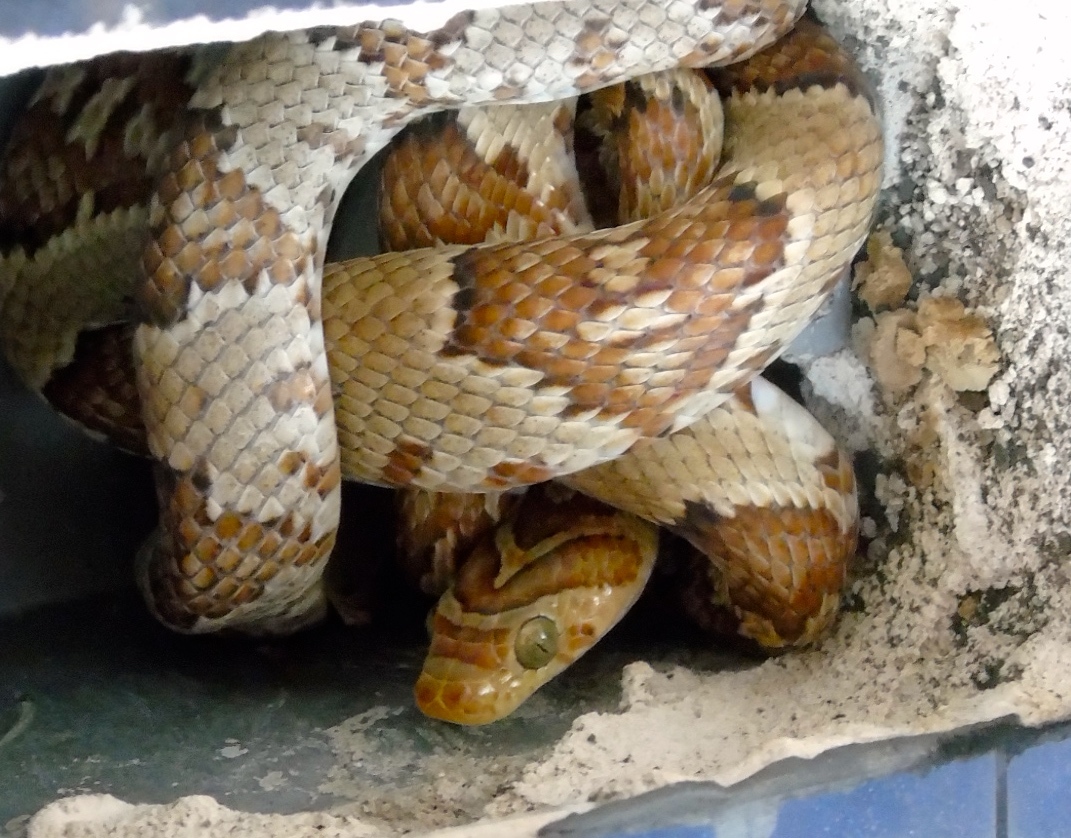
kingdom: Animalia
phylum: Chordata
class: Squamata
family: Colubridae
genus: Trimorphodon
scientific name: Trimorphodon paucimaculatus
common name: Sinaloan lyresnake
